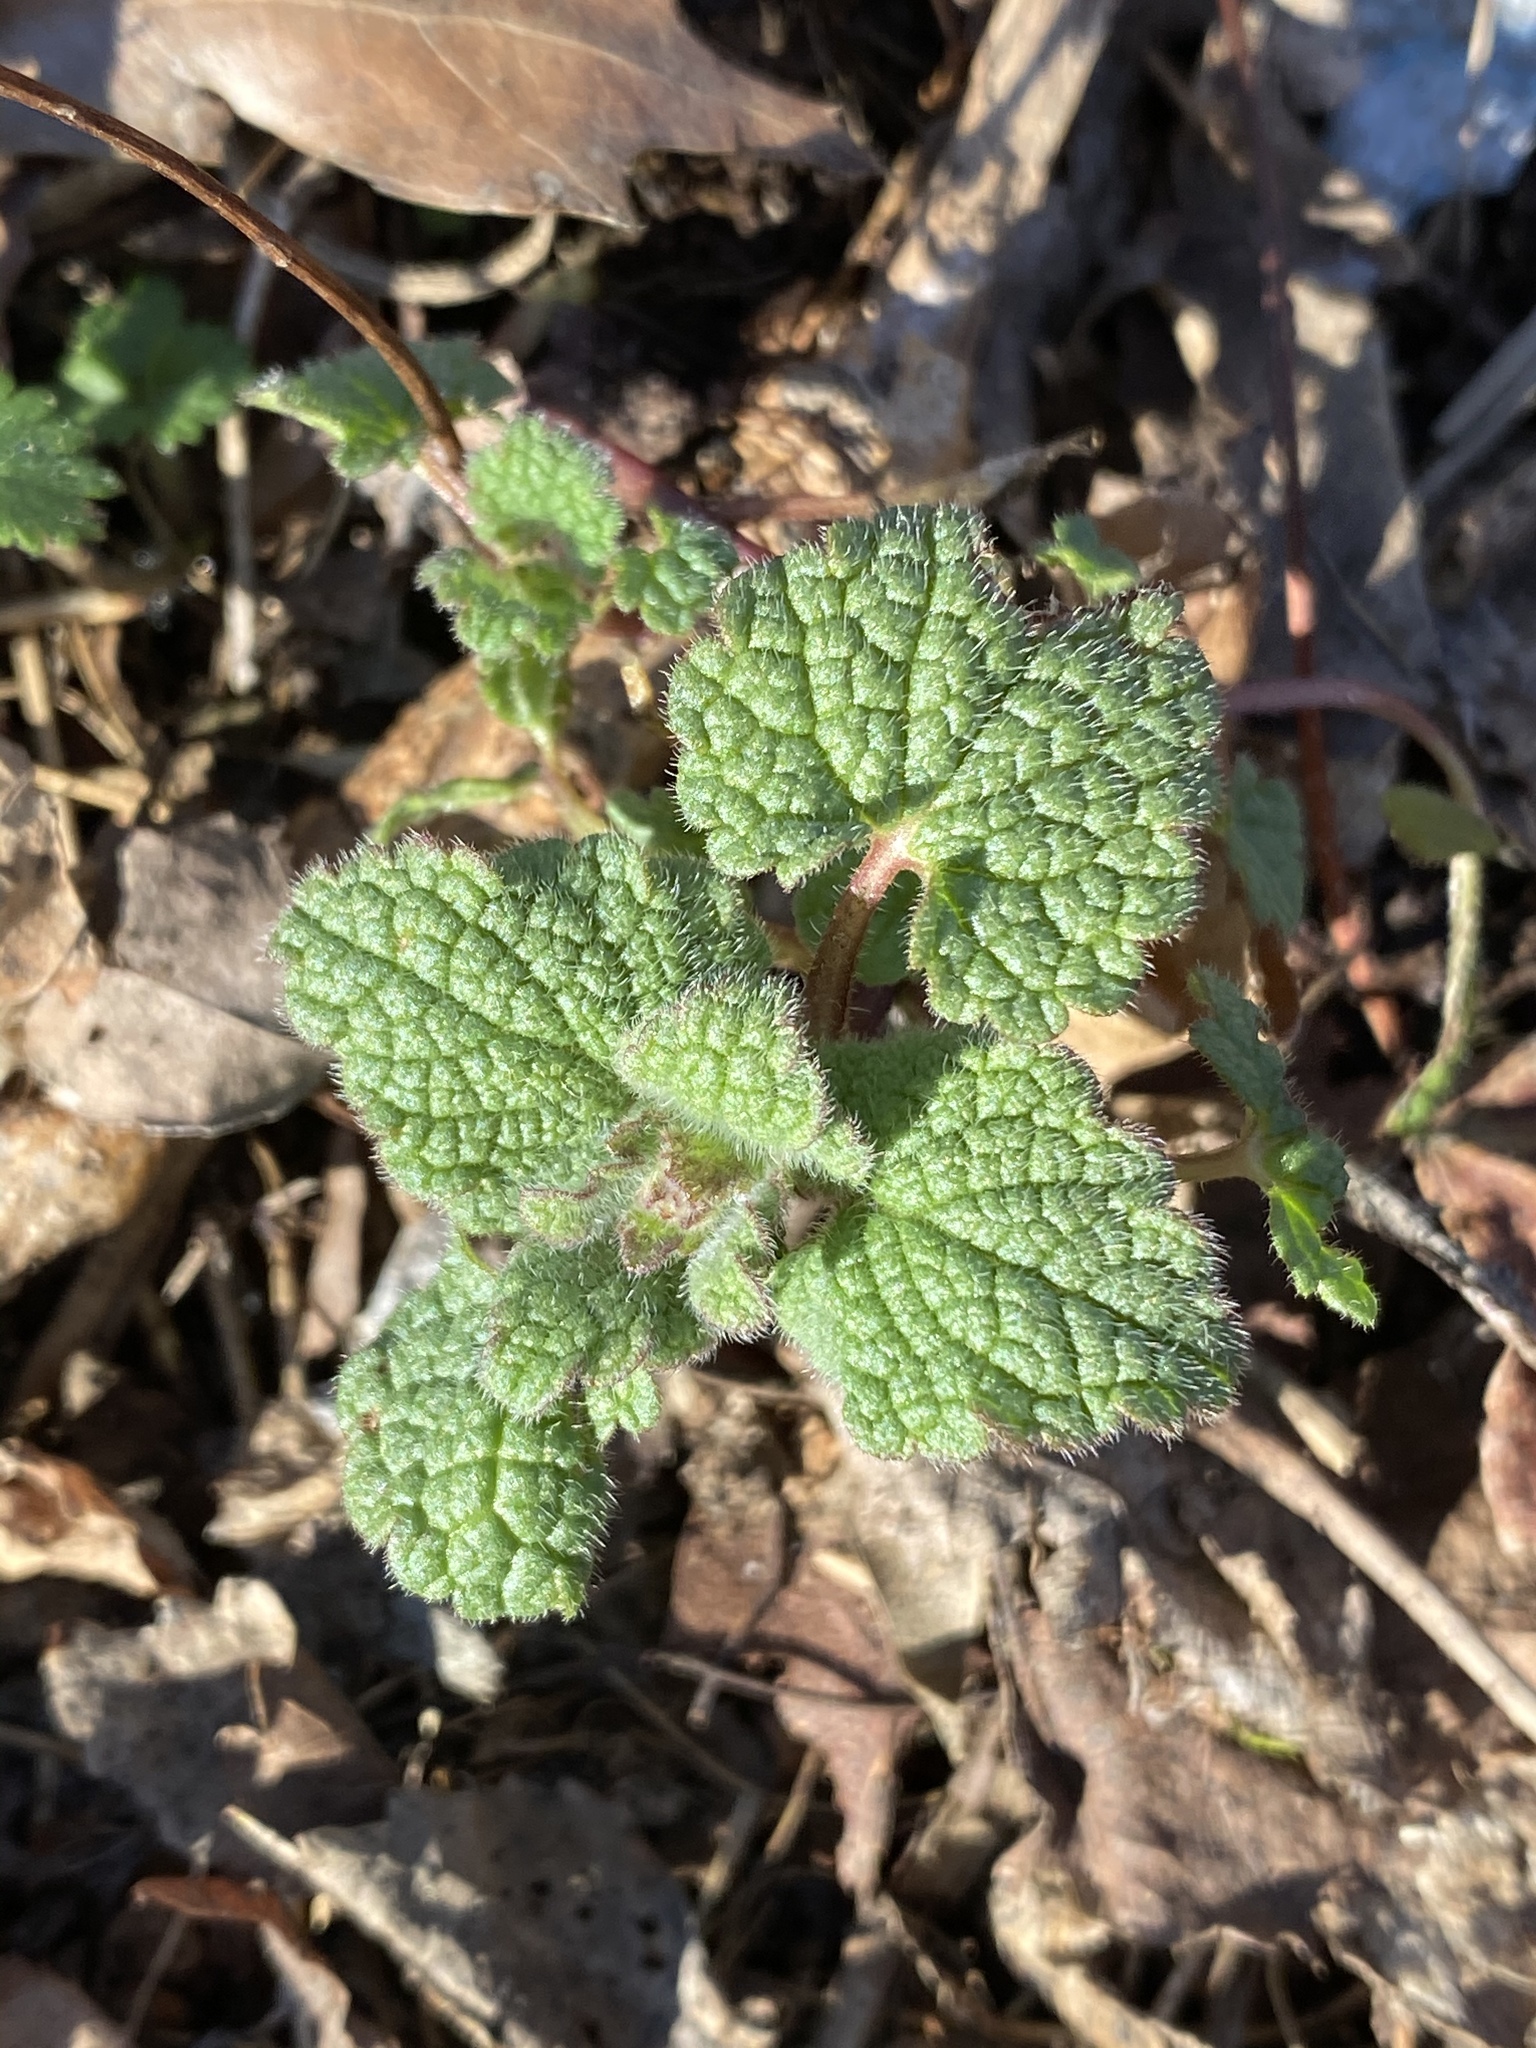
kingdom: Plantae
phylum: Tracheophyta
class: Magnoliopsida
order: Lamiales
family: Lamiaceae
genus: Lamium
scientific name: Lamium purpureum
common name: Red dead-nettle
